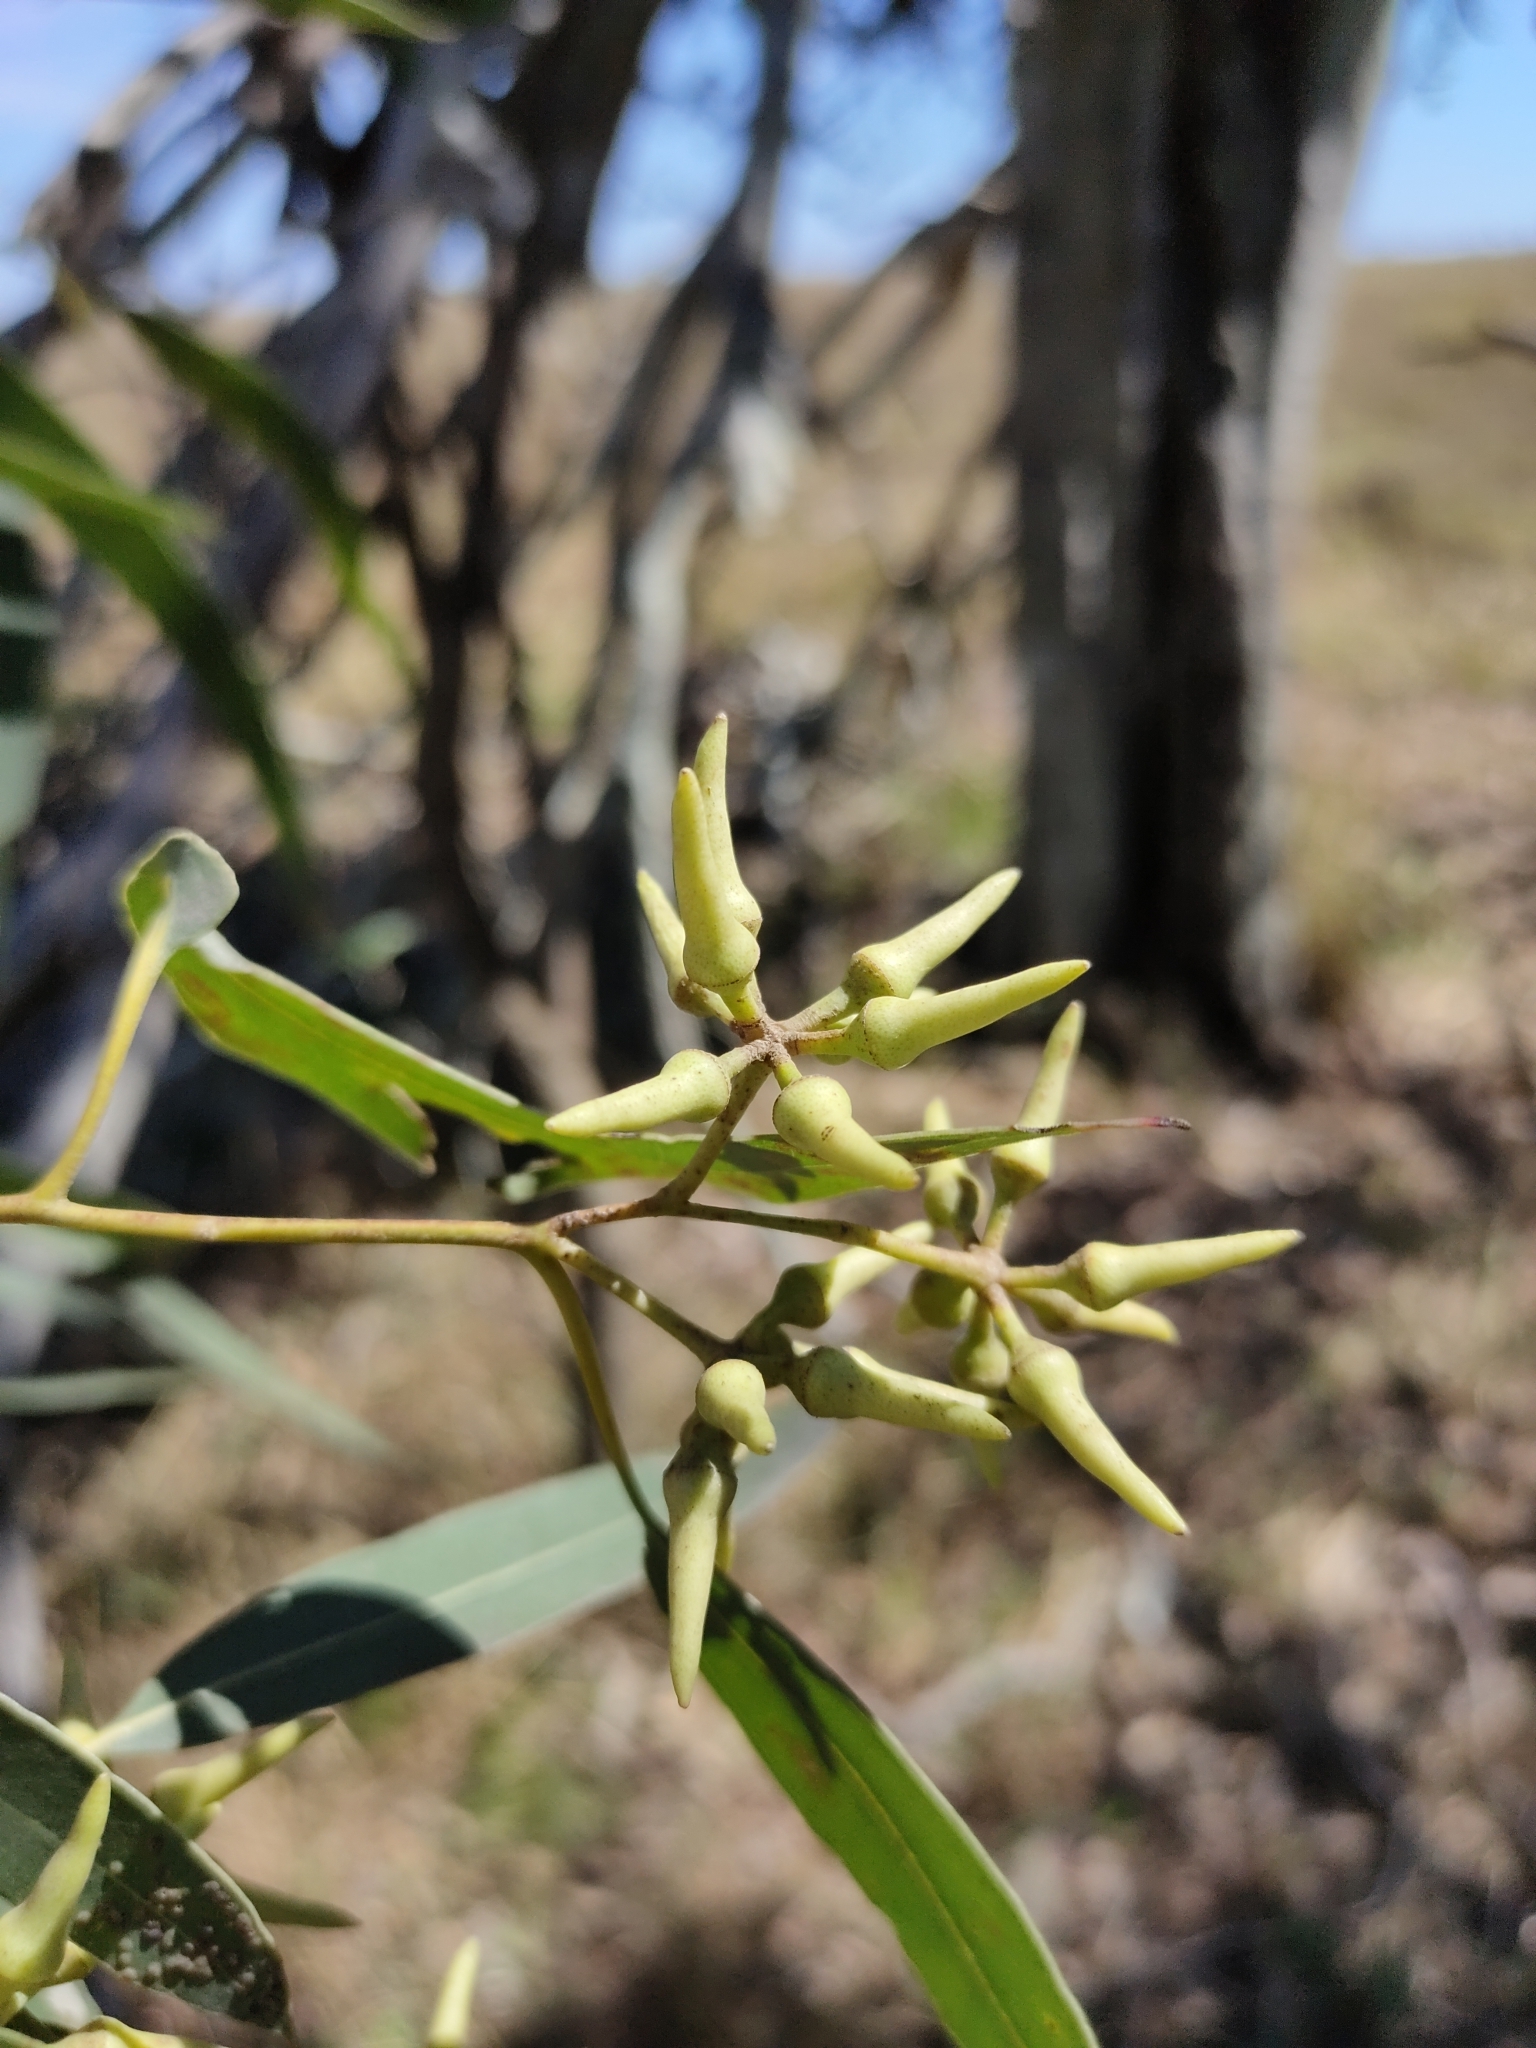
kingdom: Plantae
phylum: Tracheophyta
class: Magnoliopsida
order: Myrtales
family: Myrtaceae
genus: Eucalyptus
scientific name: Eucalyptus tereticornis
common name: Forest redgum
